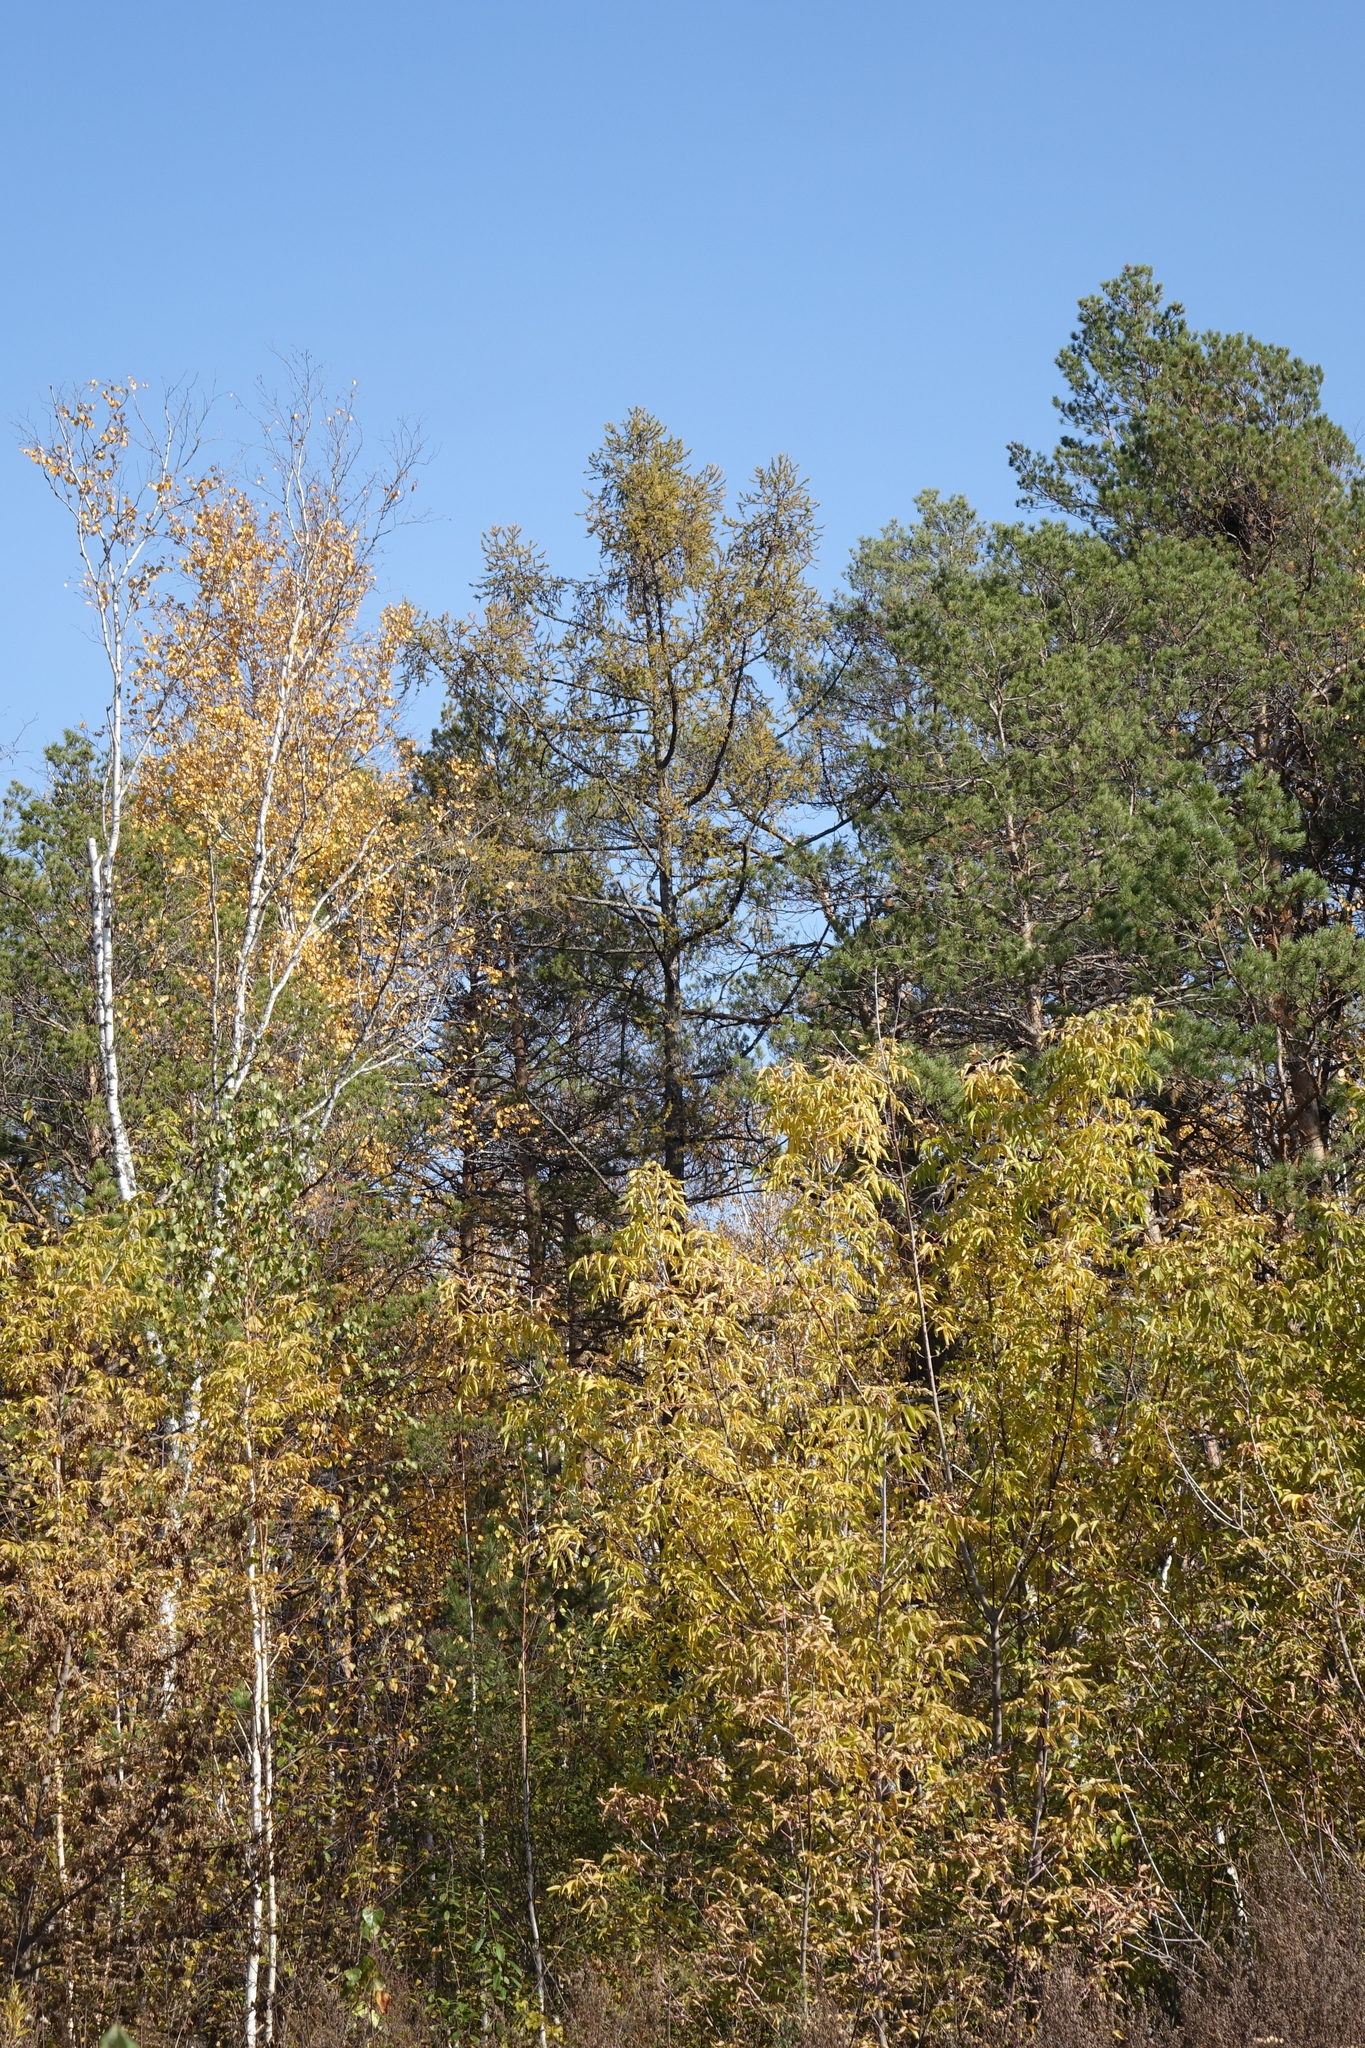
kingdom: Plantae
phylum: Tracheophyta
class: Pinopsida
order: Pinales
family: Pinaceae
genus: Larix
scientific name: Larix sibirica
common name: Siberian larch
